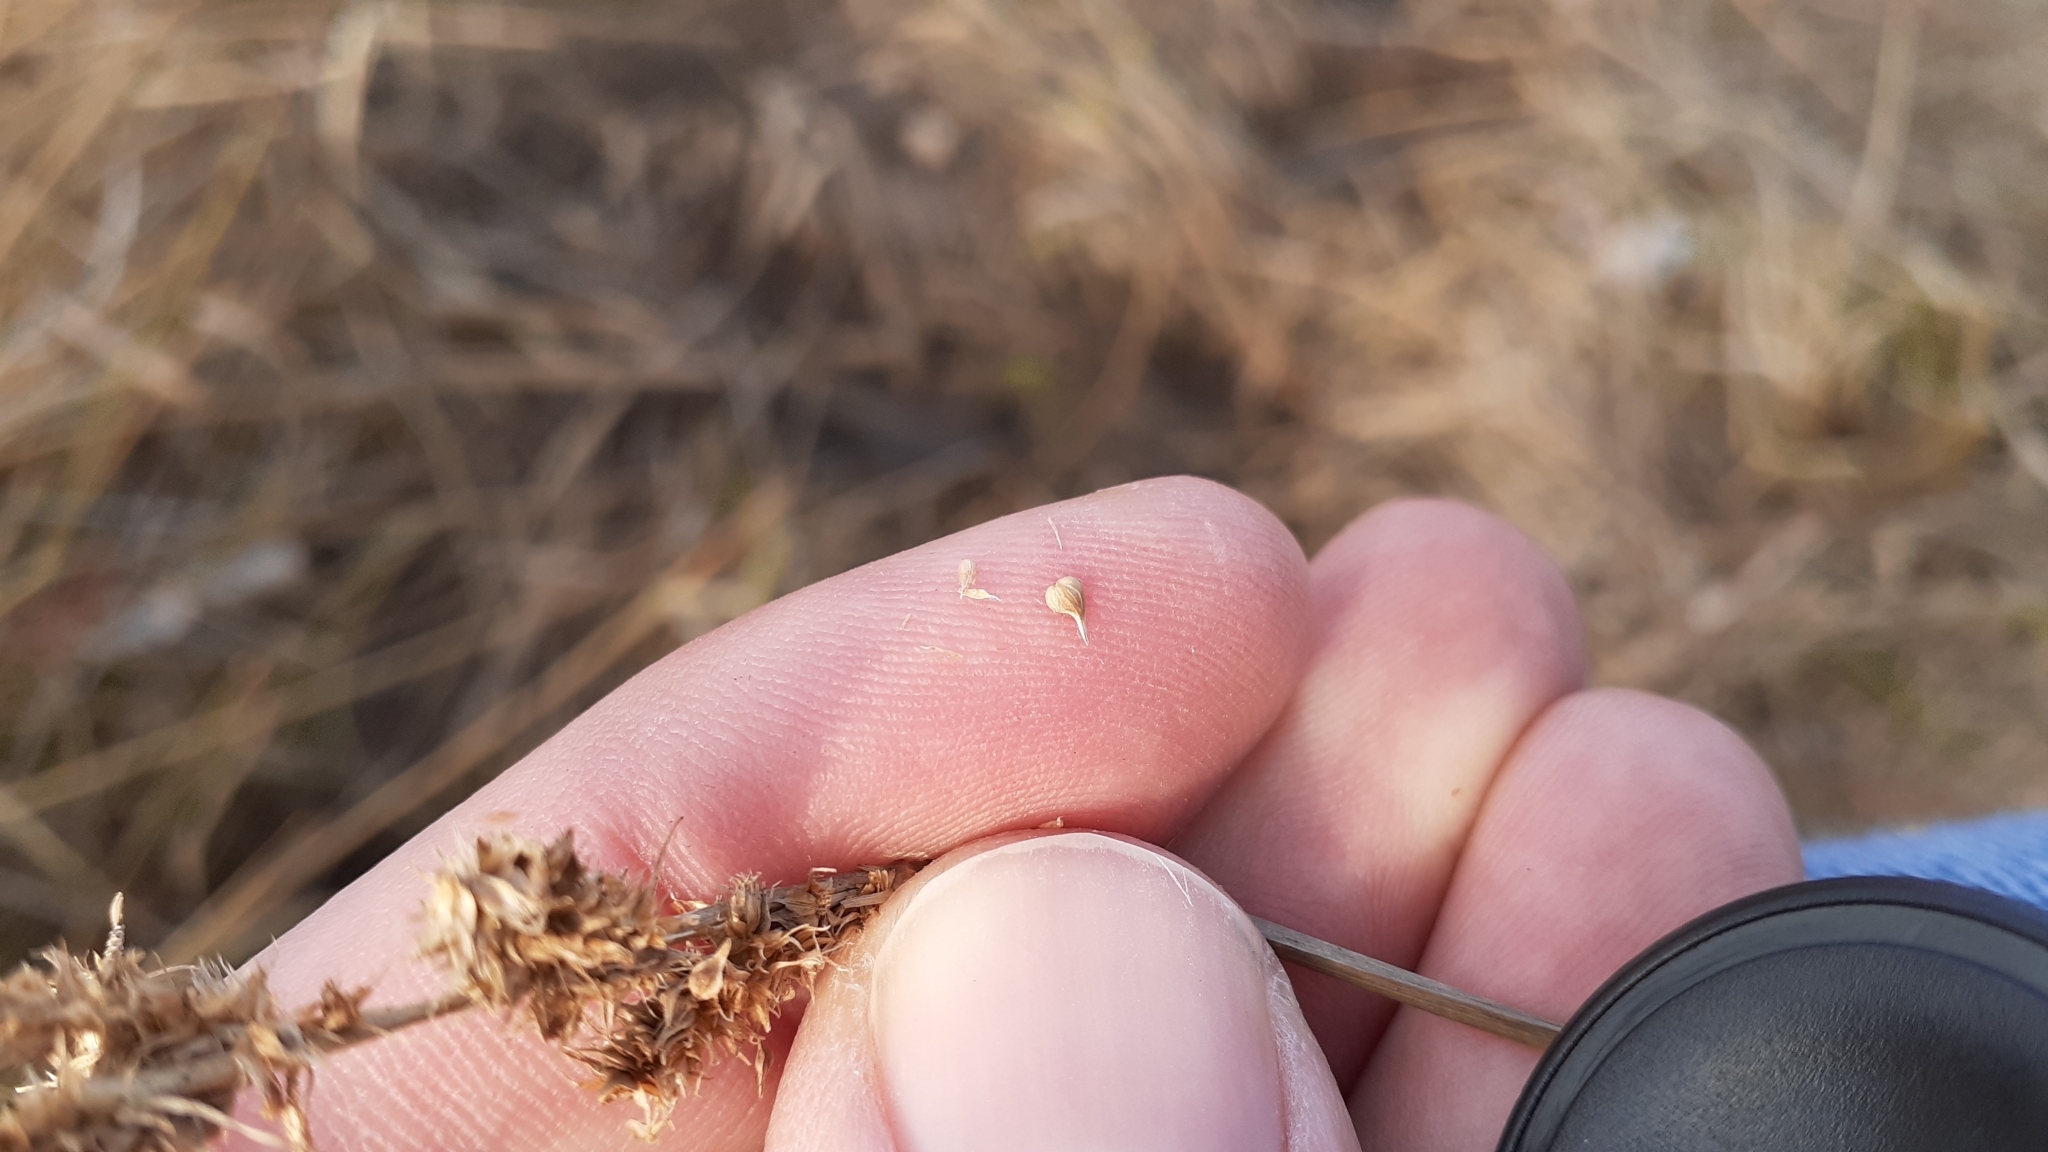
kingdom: Plantae
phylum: Tracheophyta
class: Liliopsida
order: Poales
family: Cyperaceae
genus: Carex
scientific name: Carex vulpinoidea
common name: American fox-sedge
